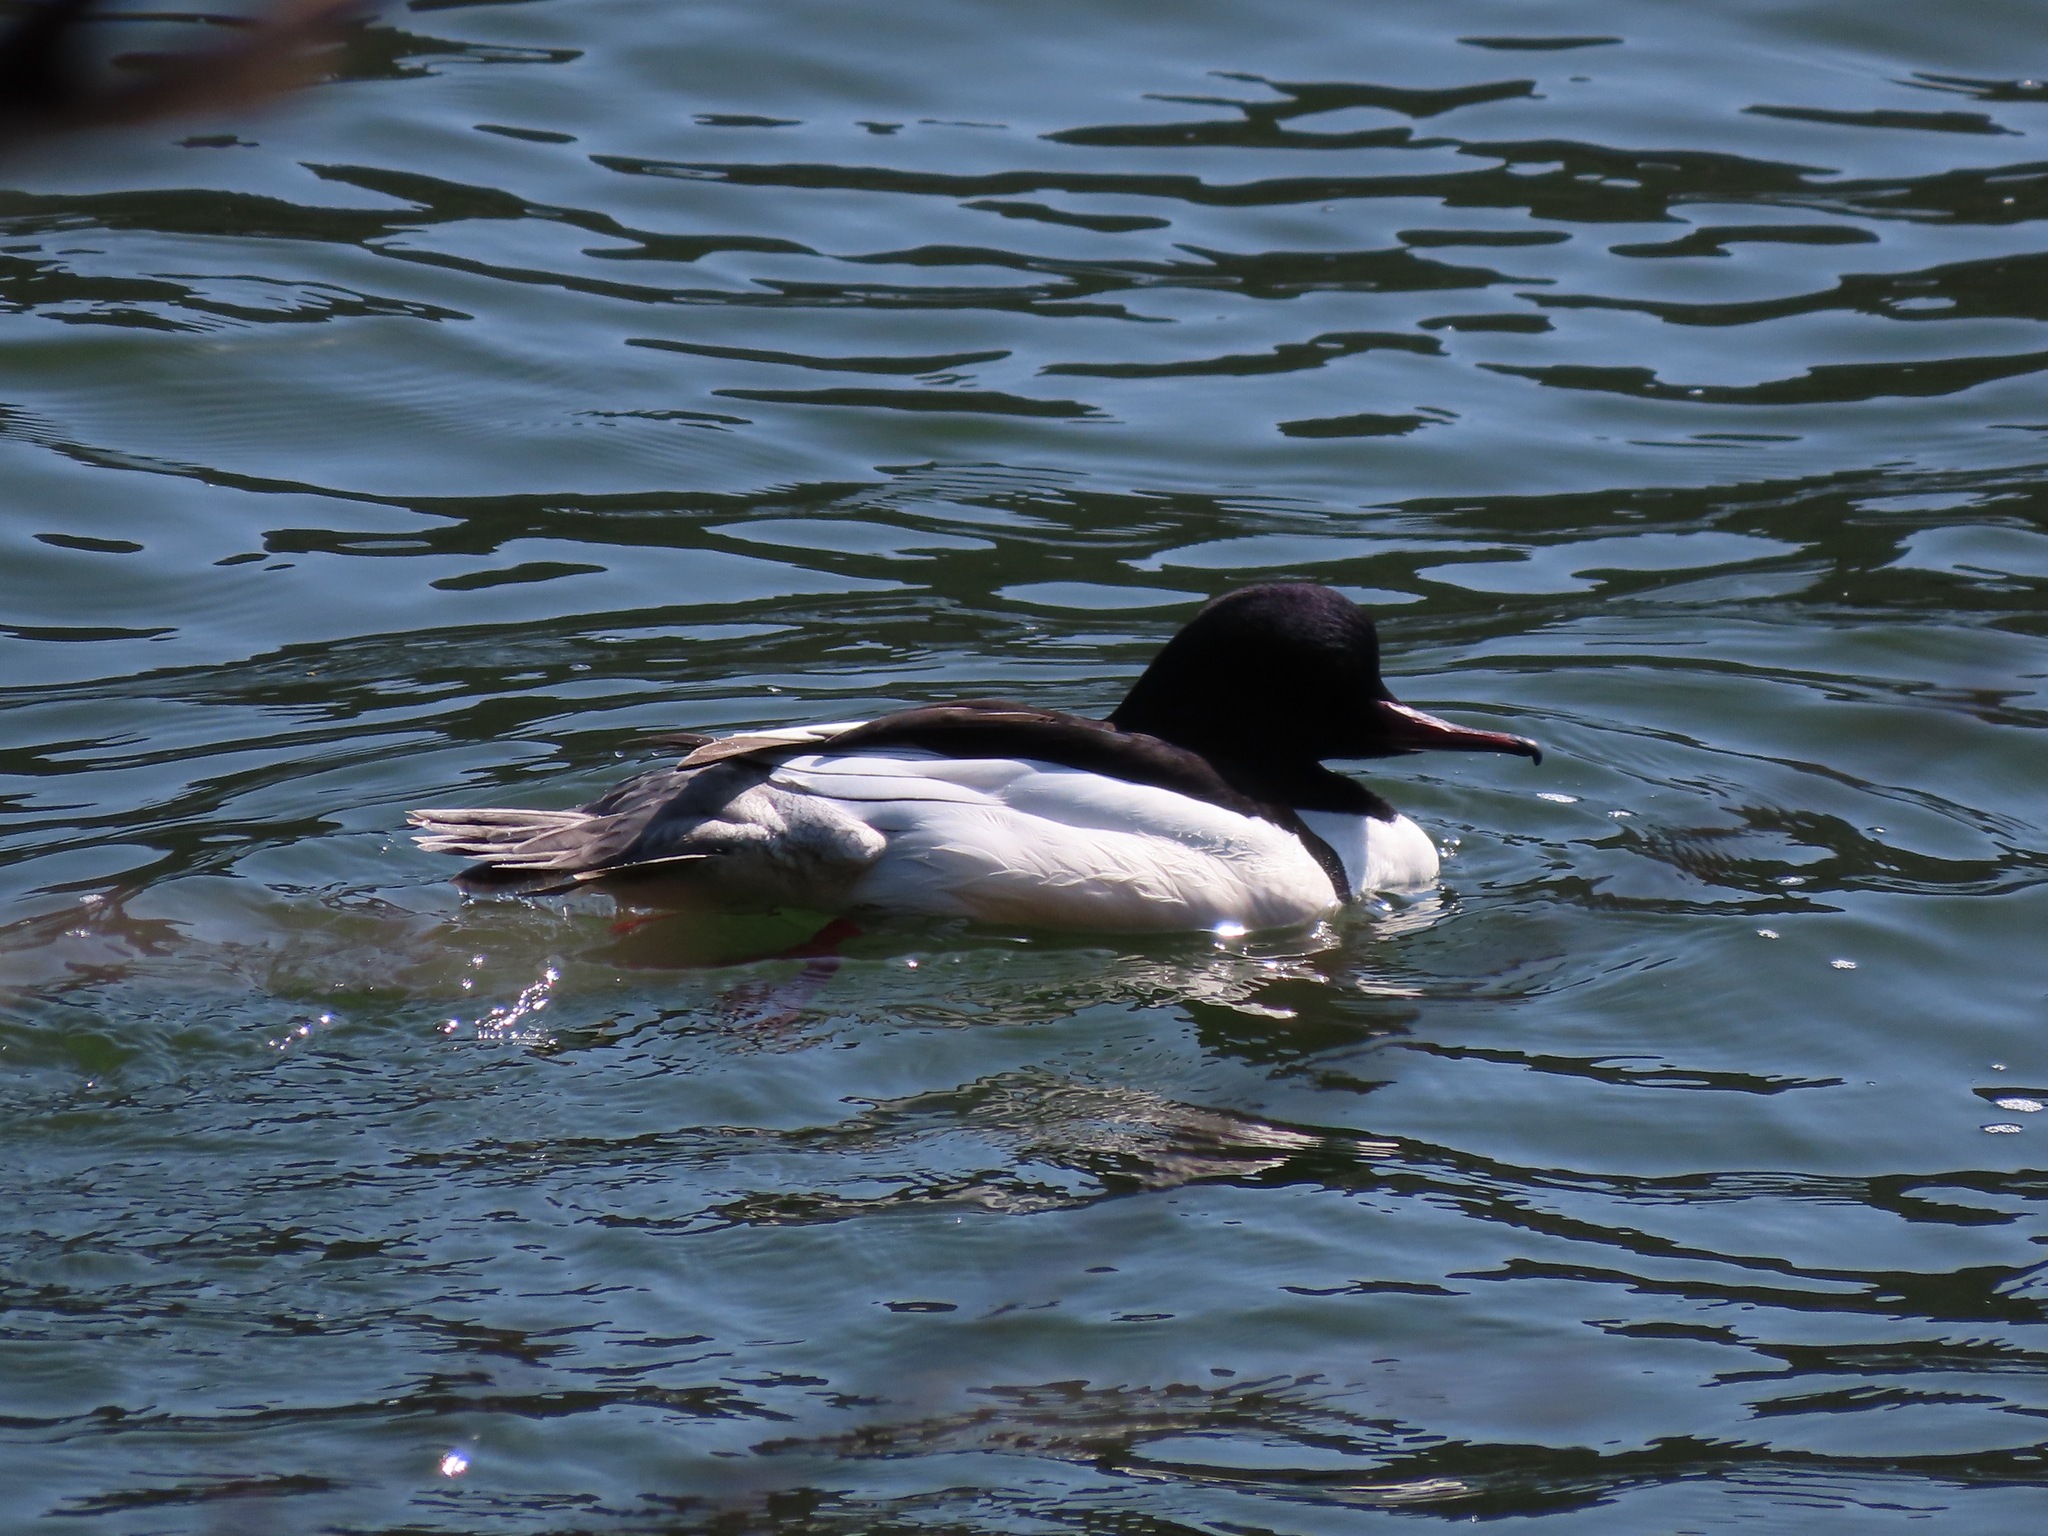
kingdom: Animalia
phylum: Chordata
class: Aves
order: Anseriformes
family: Anatidae
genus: Mergus
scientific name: Mergus merganser
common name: Common merganser
